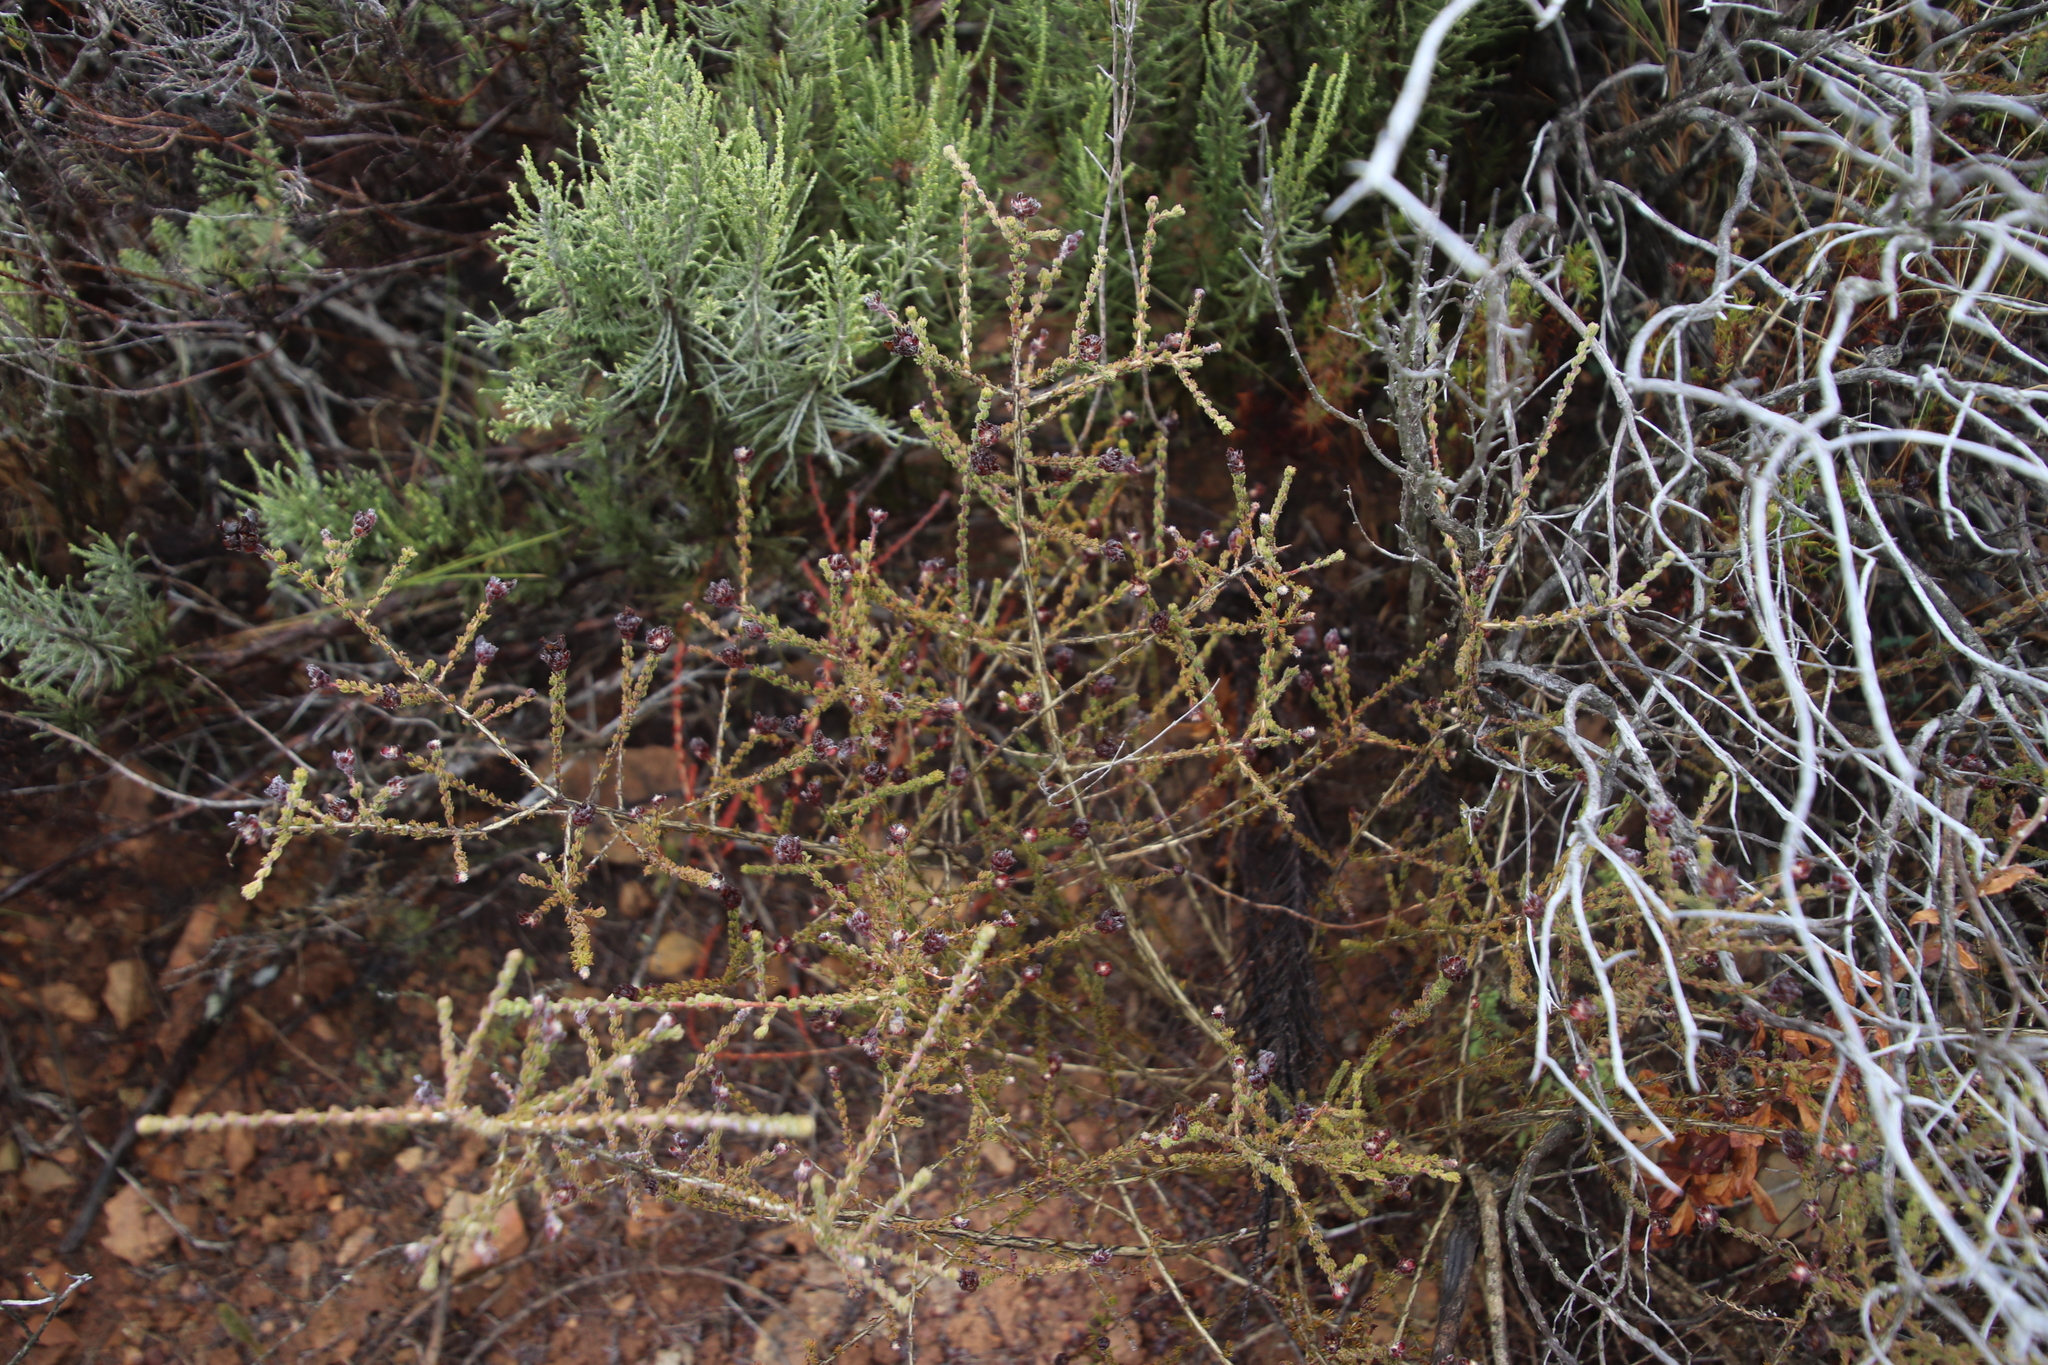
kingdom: Plantae
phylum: Tracheophyta
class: Magnoliopsida
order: Fabales
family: Fabaceae
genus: Aspalathus
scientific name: Aspalathus nigra
